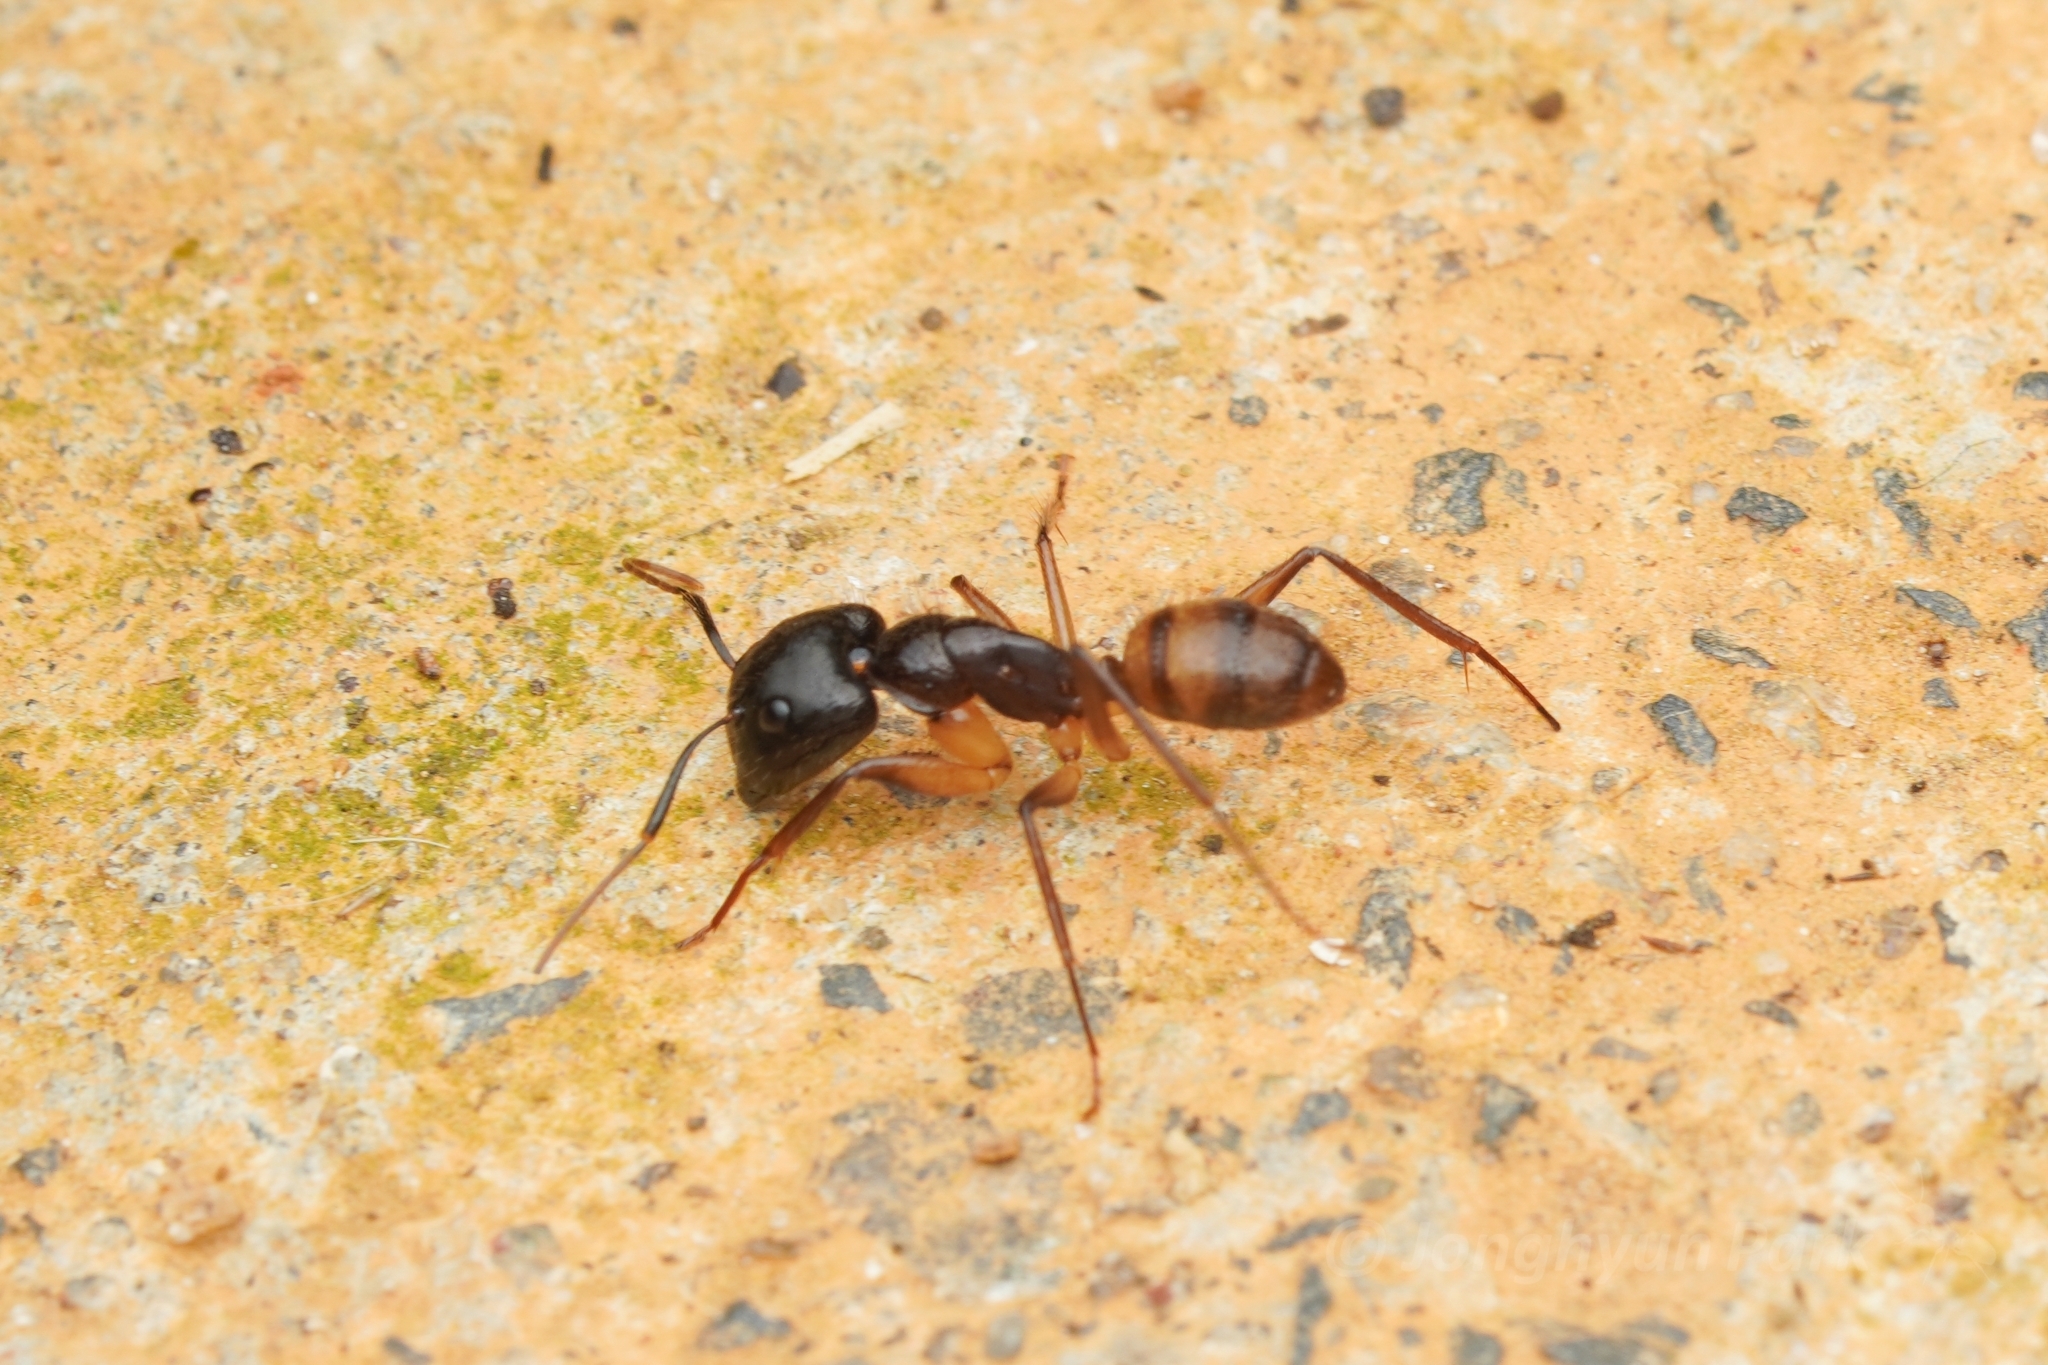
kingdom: Animalia
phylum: Arthropoda
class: Insecta
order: Hymenoptera
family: Formicidae
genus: Camponotus
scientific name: Camponotus atriceps
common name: Florida carpenter ant
